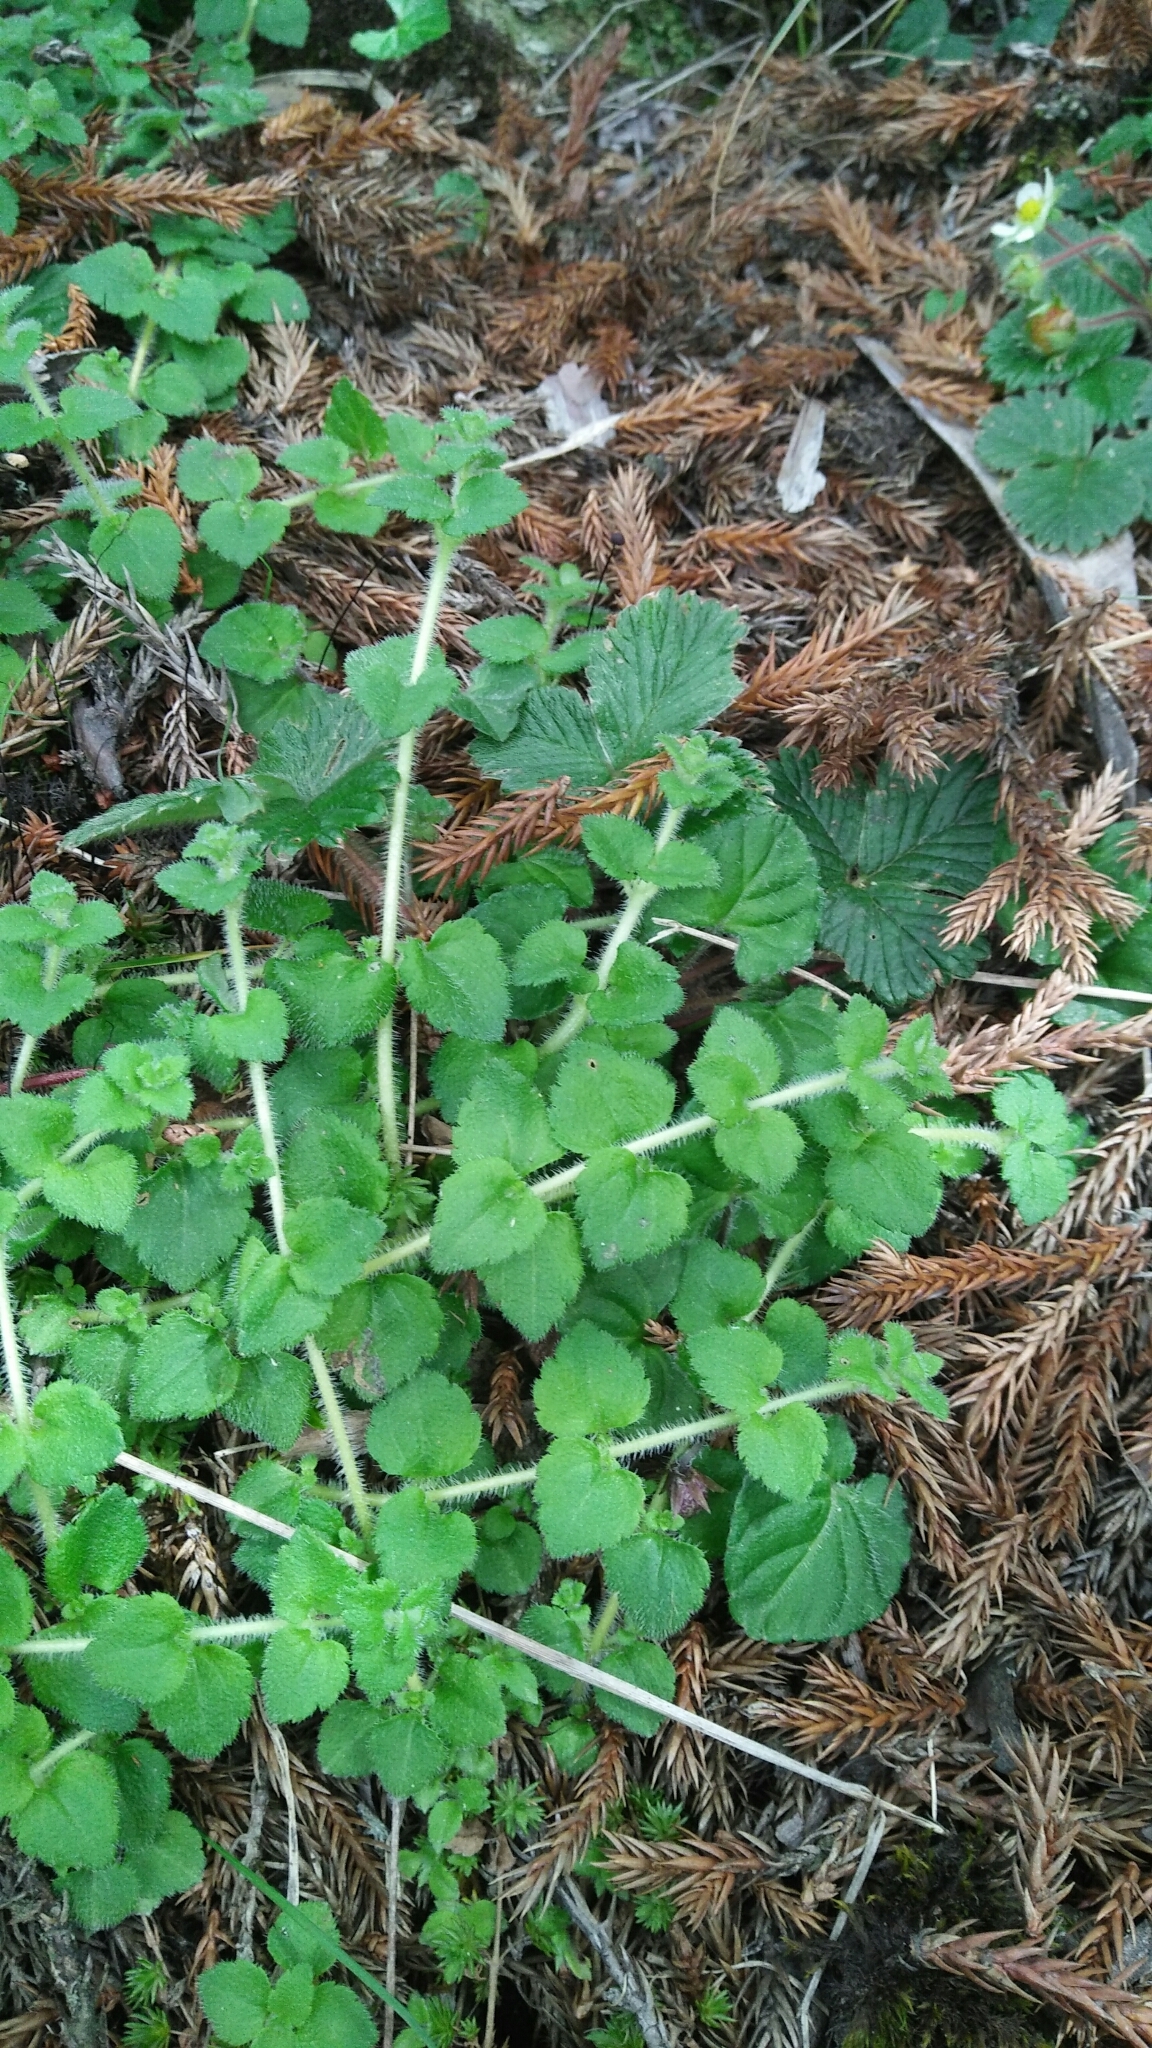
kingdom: Plantae
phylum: Tracheophyta
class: Magnoliopsida
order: Lamiales
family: Plantaginaceae
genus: Hemiphragma
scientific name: Hemiphragma heterophyllum
